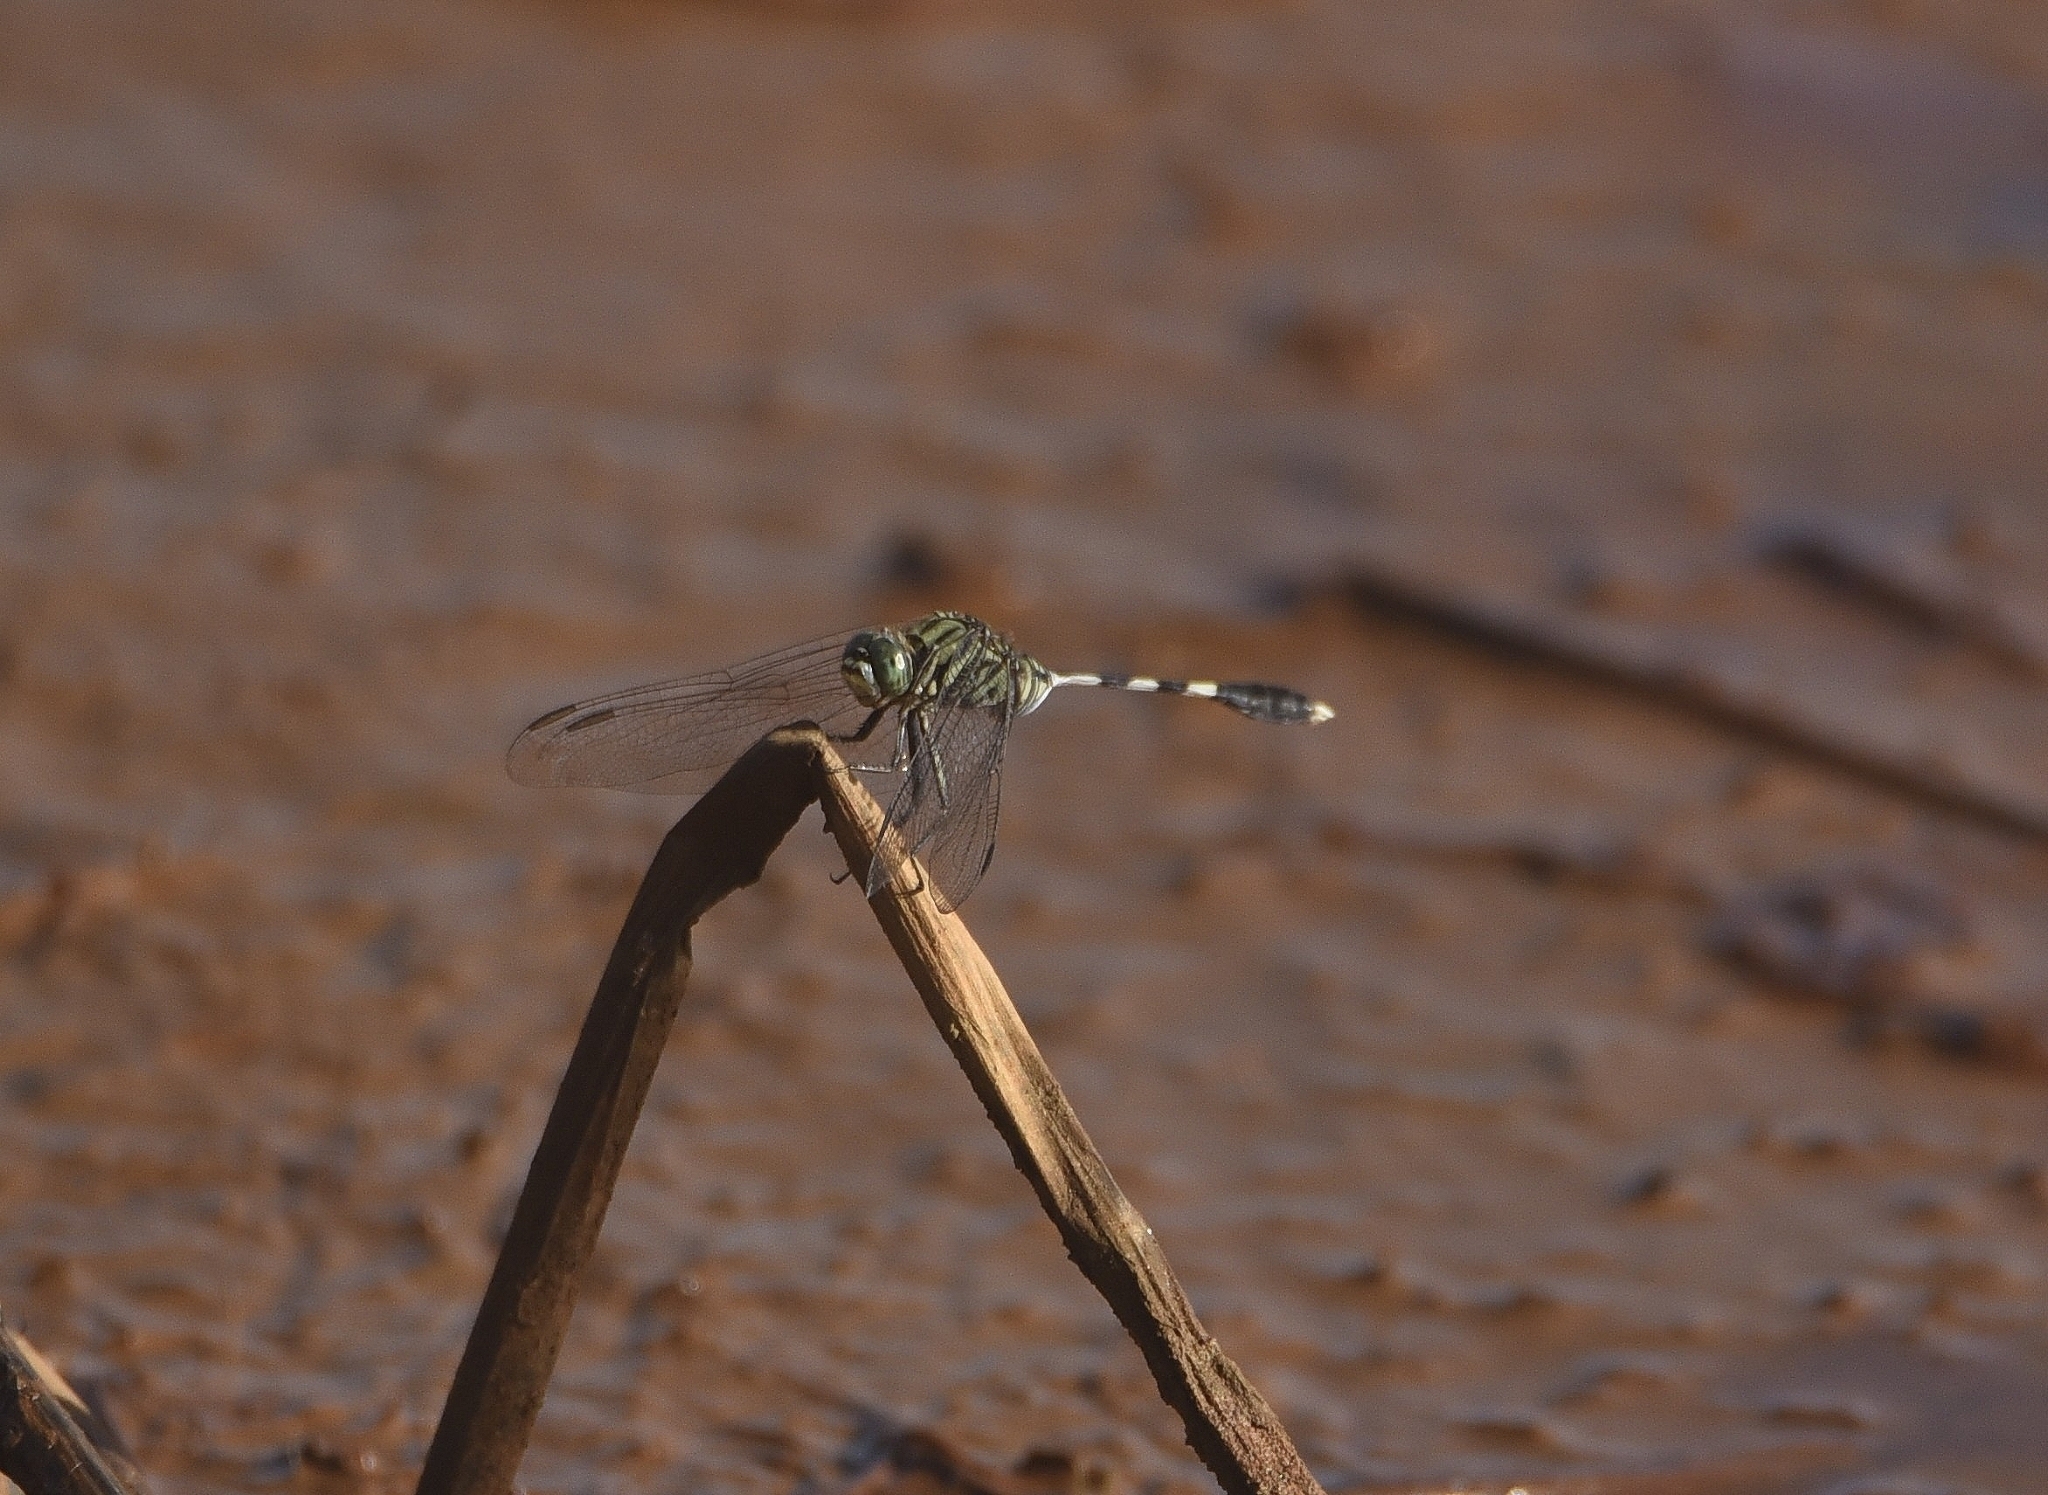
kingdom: Animalia
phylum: Arthropoda
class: Insecta
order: Odonata
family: Libellulidae
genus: Orthetrum
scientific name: Orthetrum sabina
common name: Slender skimmer
